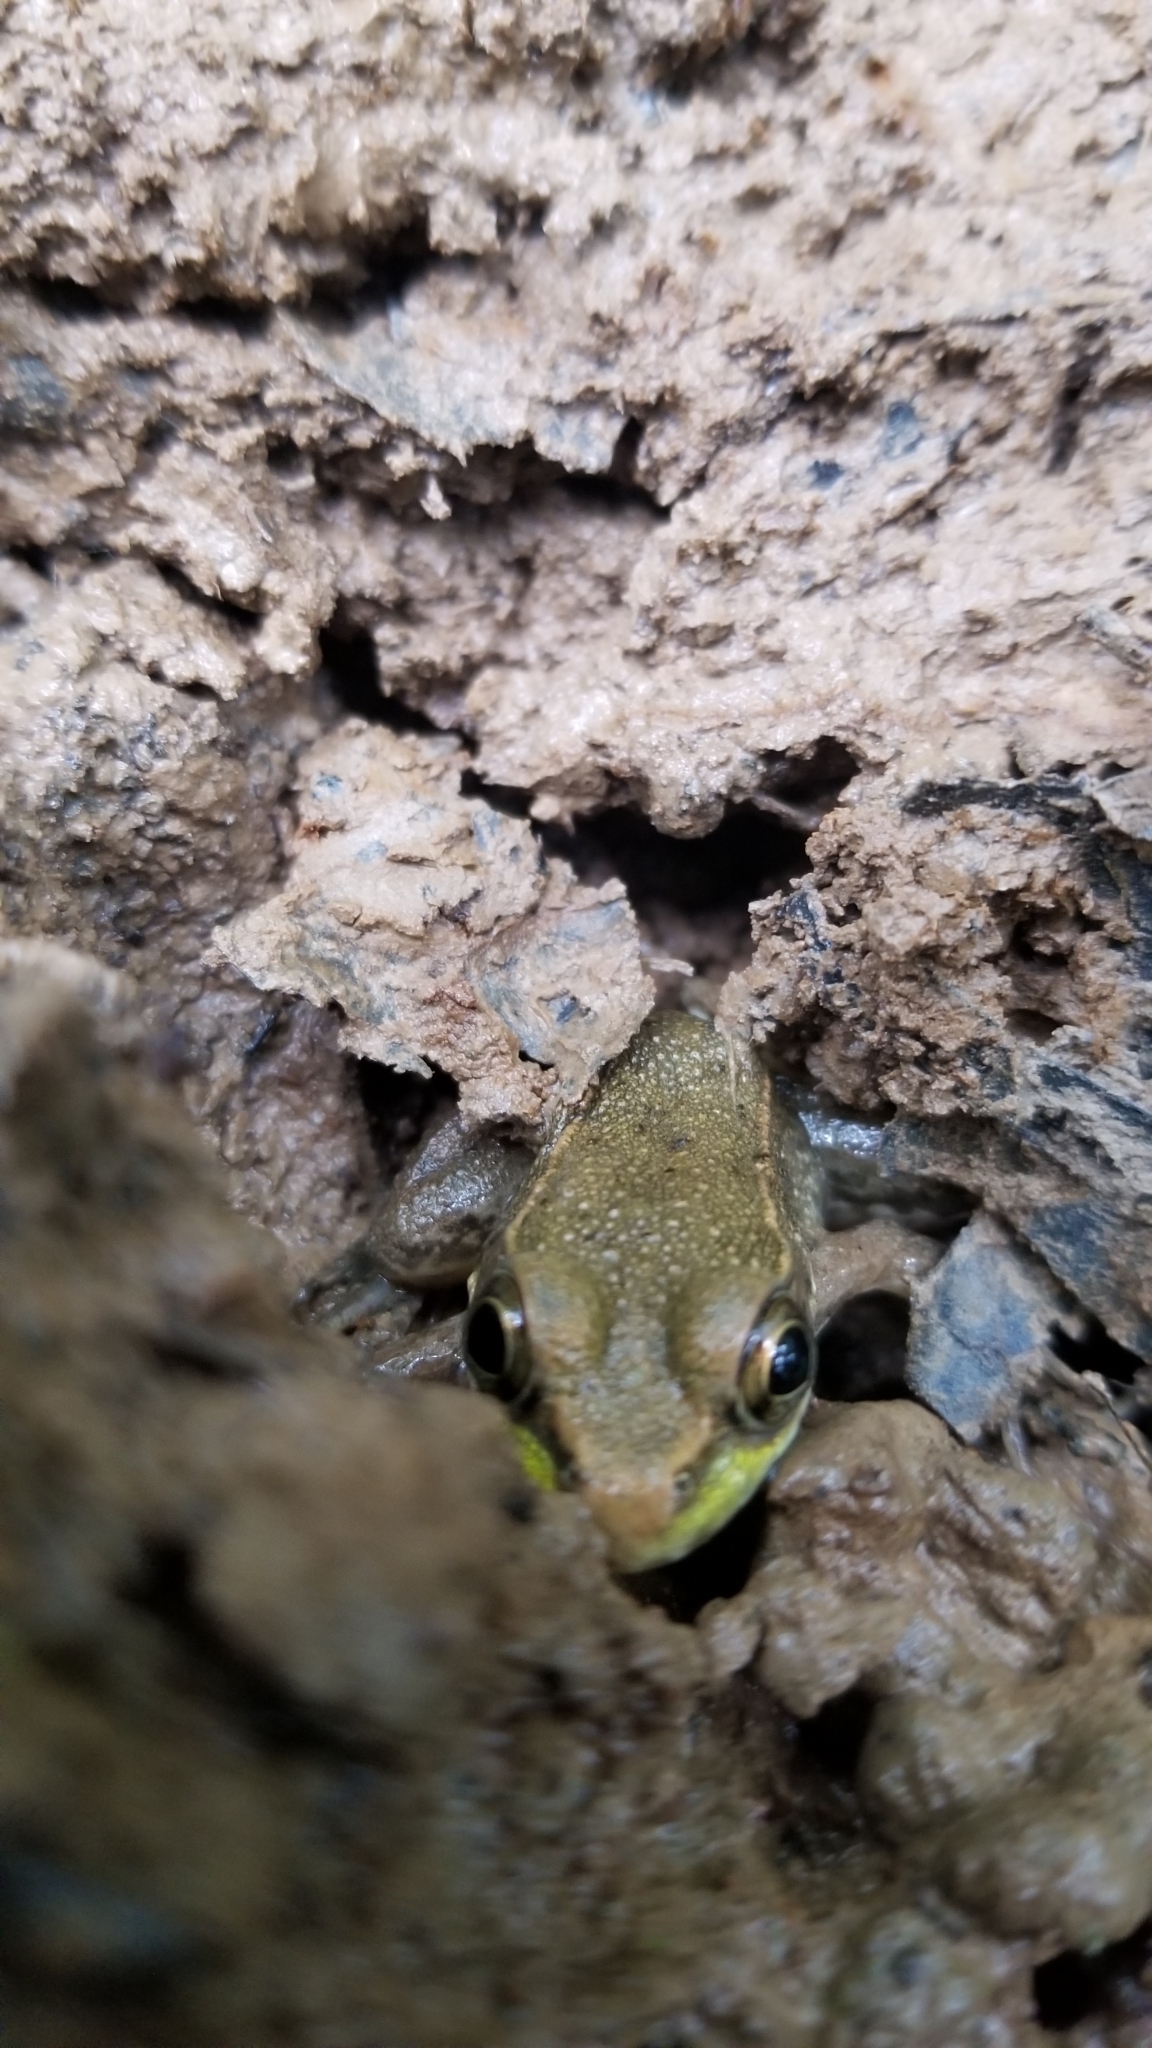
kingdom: Animalia
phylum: Chordata
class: Amphibia
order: Anura
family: Ranidae
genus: Lithobates
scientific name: Lithobates clamitans
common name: Green frog
